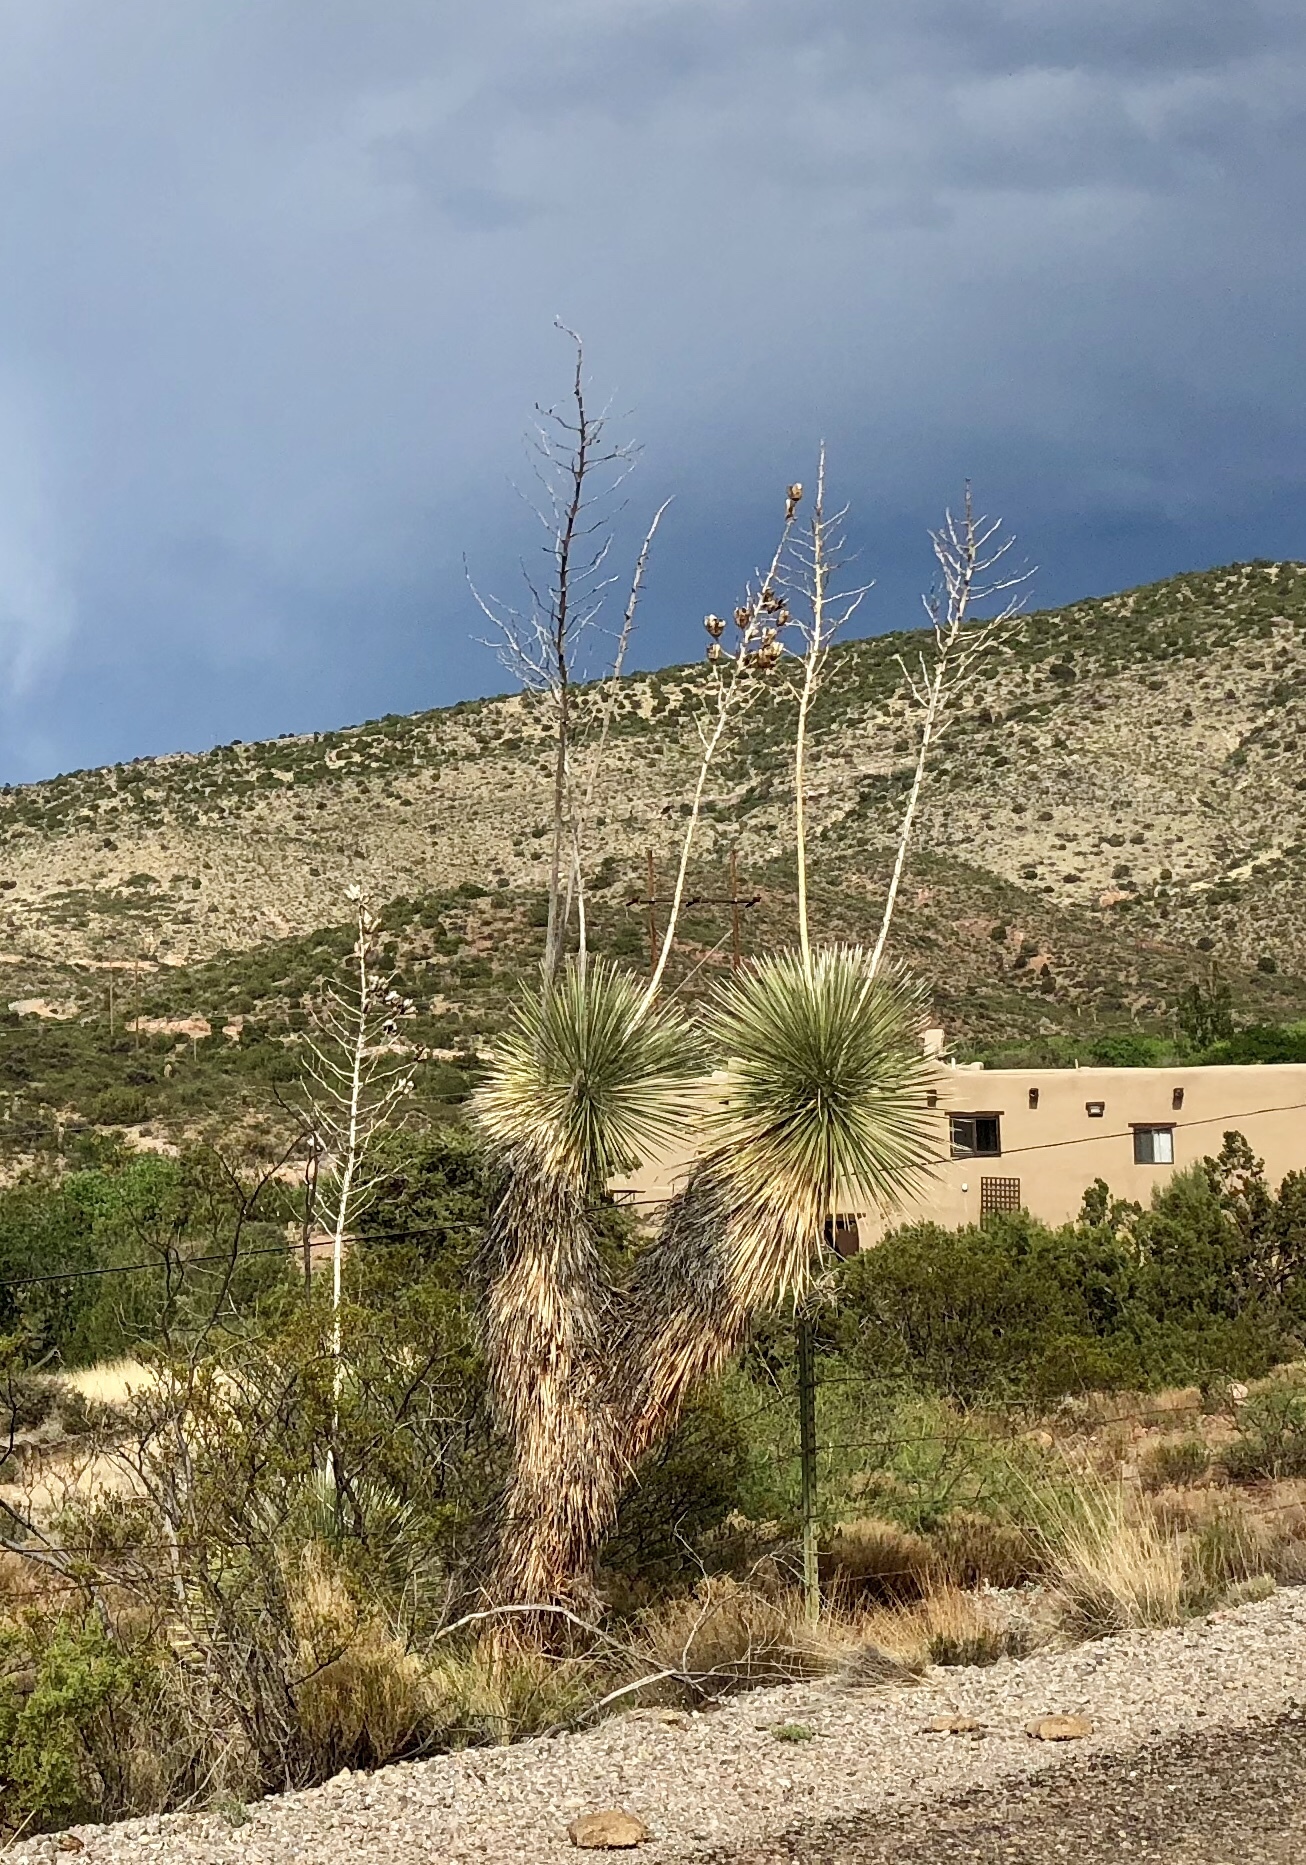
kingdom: Plantae
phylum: Tracheophyta
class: Liliopsida
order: Asparagales
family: Asparagaceae
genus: Yucca
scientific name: Yucca elata
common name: Palmella
